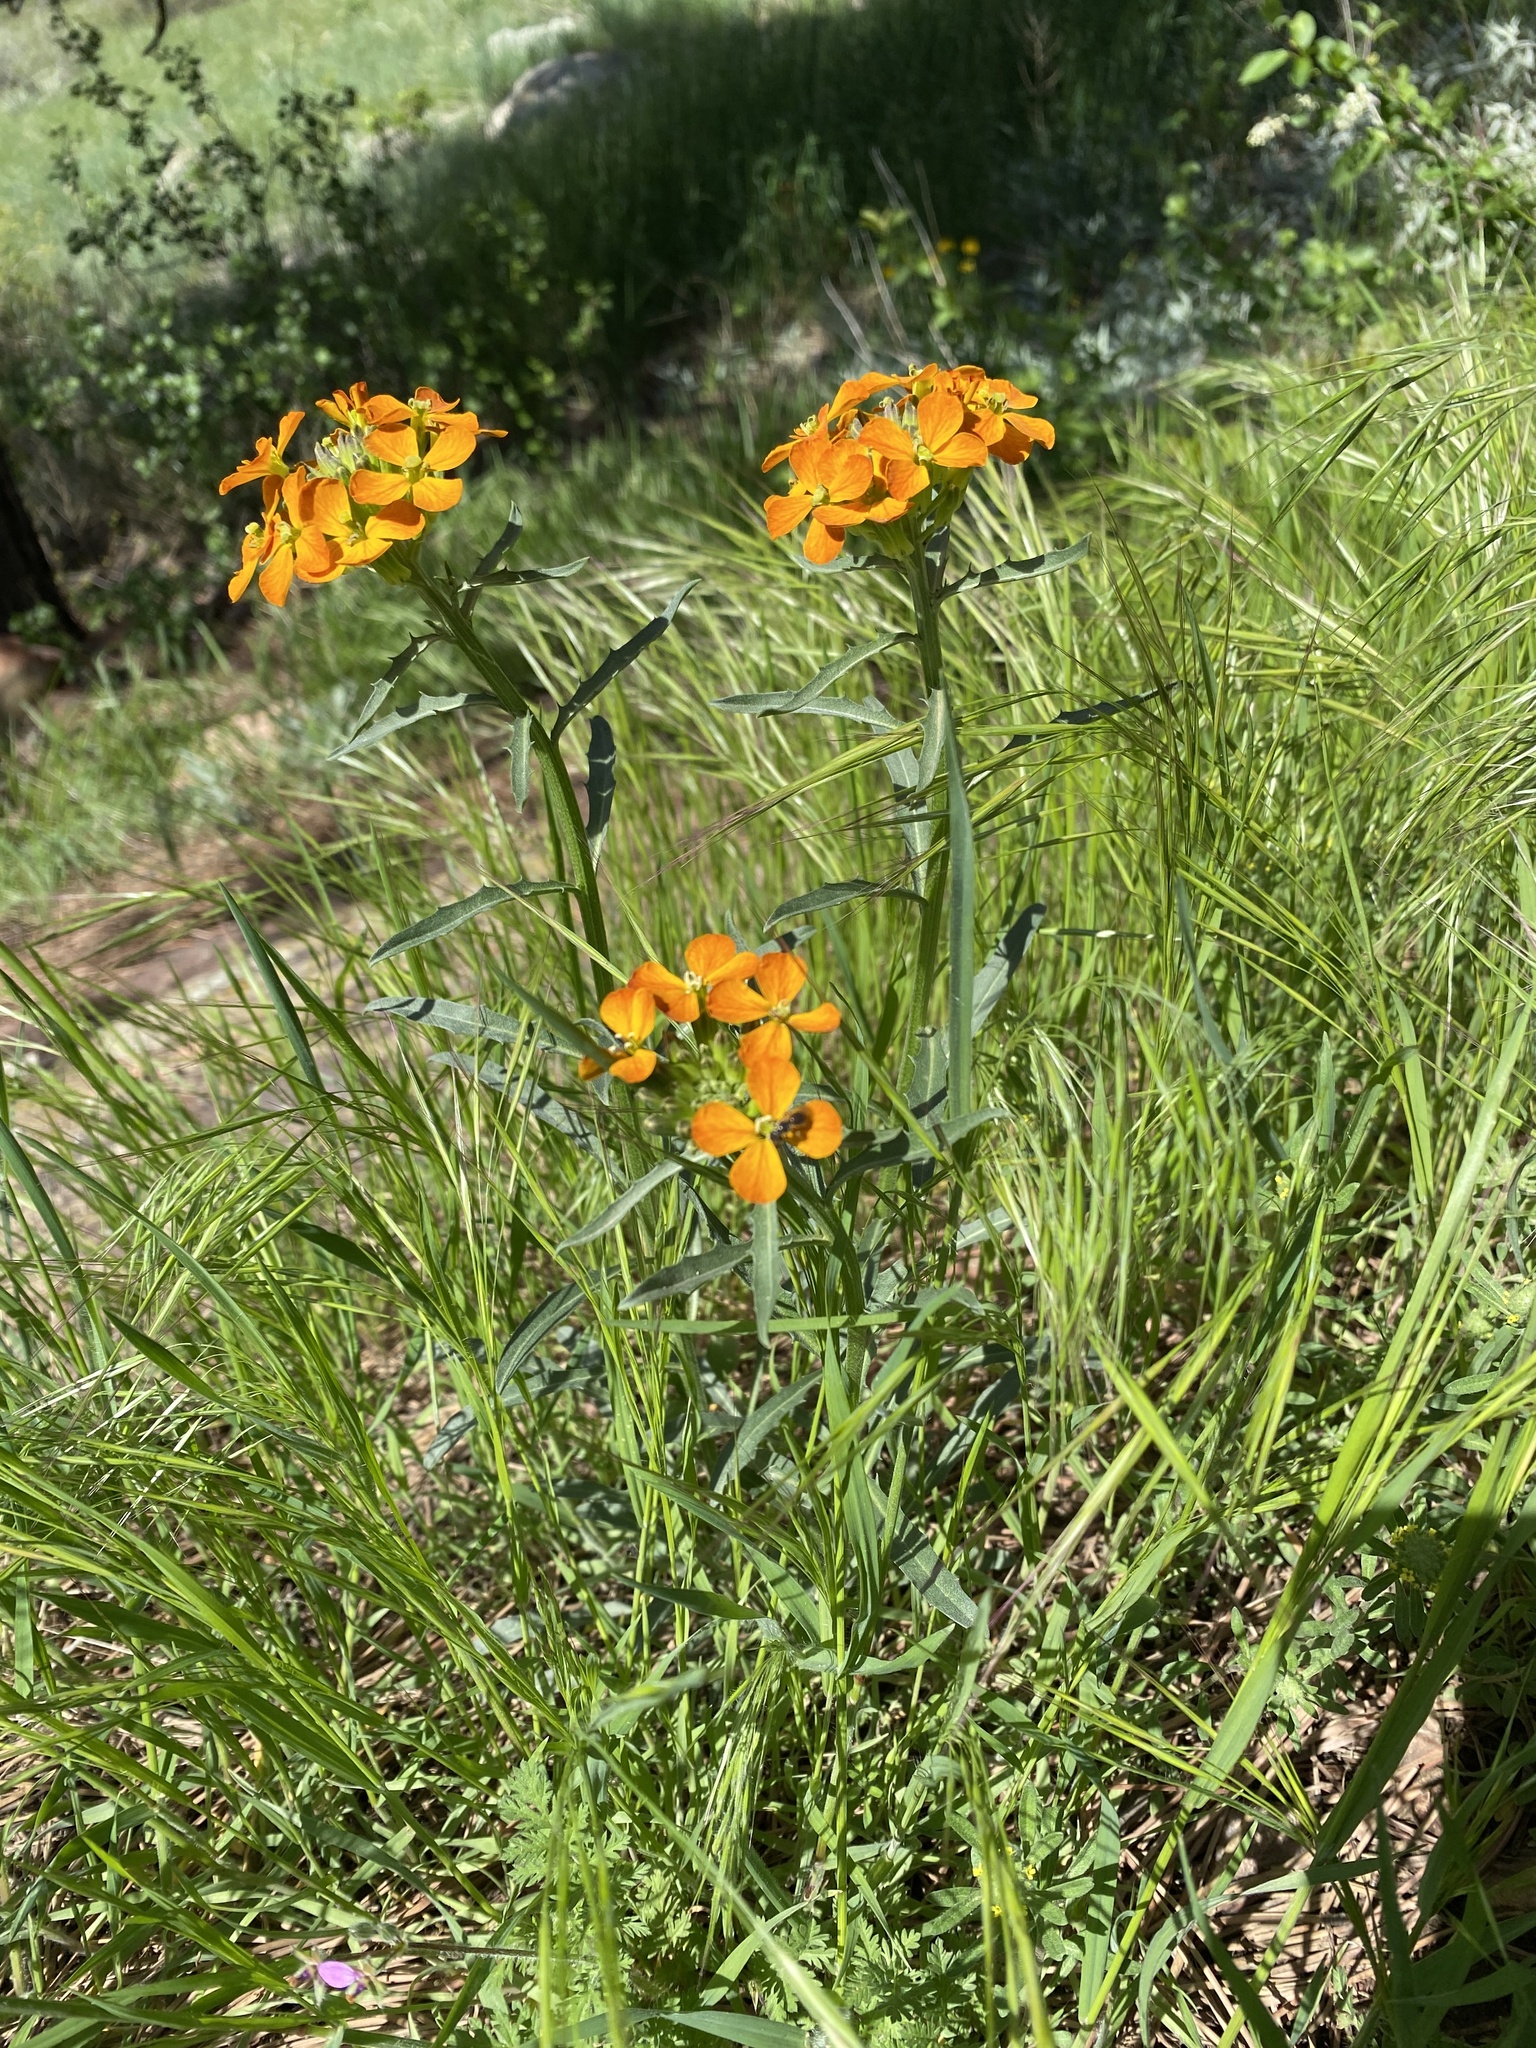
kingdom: Plantae
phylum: Tracheophyta
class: Magnoliopsida
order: Brassicales
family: Brassicaceae
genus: Erysimum
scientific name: Erysimum capitatum
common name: Western wallflower
